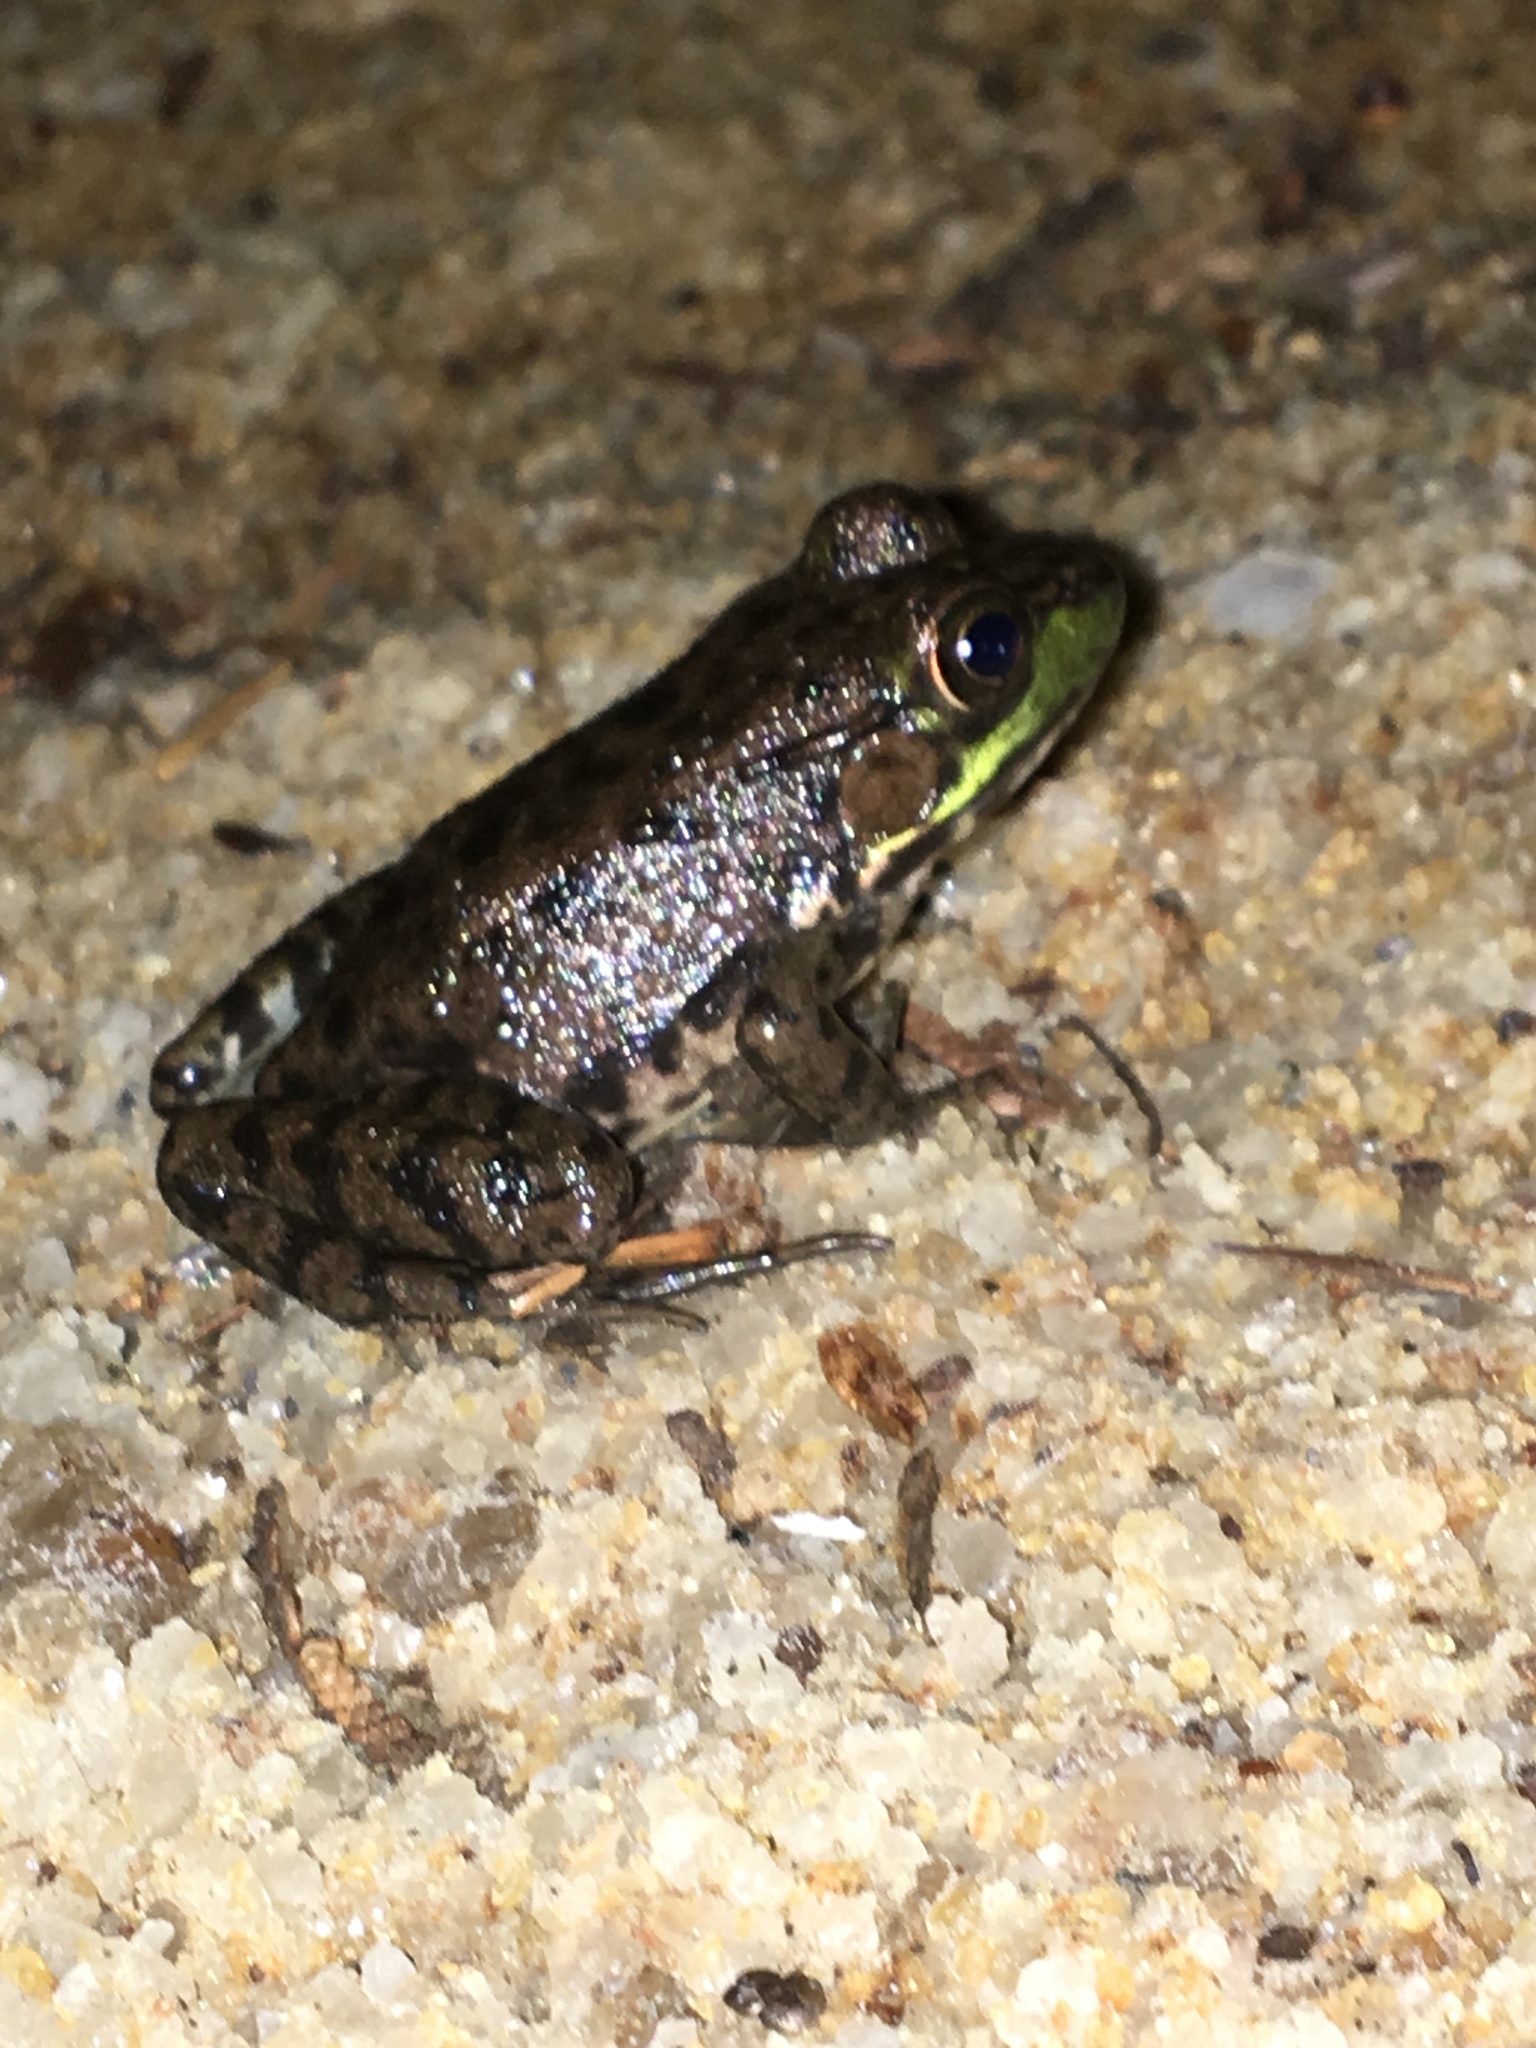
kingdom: Animalia
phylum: Chordata
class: Amphibia
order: Anura
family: Ranidae
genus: Lithobates
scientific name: Lithobates clamitans
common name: Green frog
